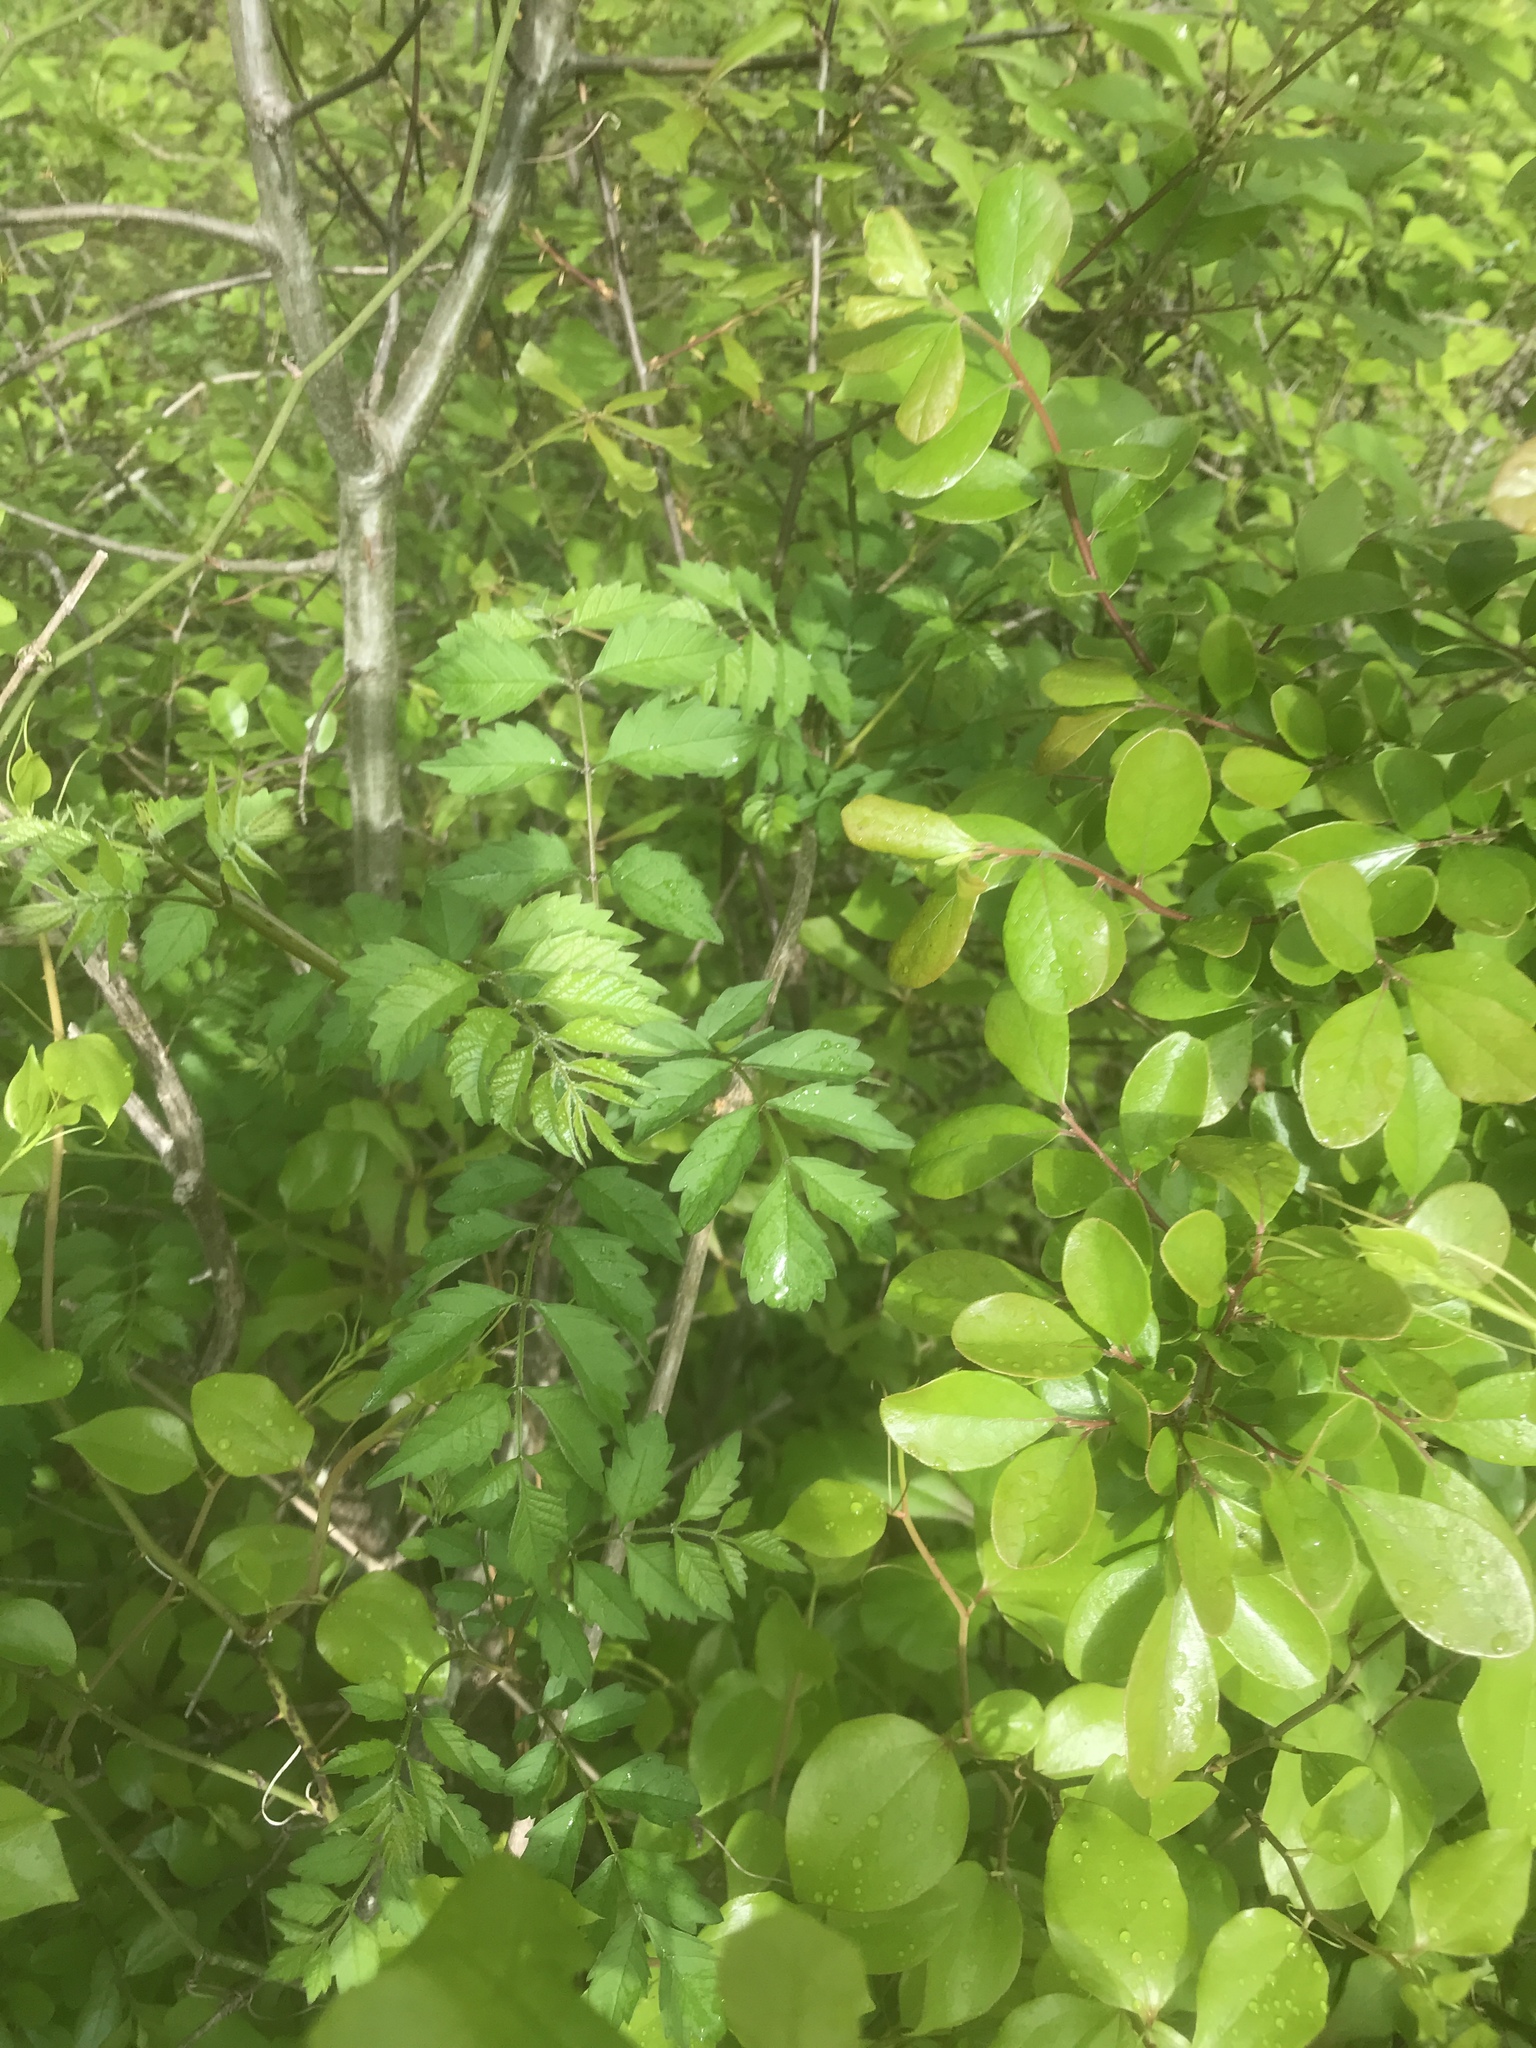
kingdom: Plantae
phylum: Tracheophyta
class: Magnoliopsida
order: Lamiales
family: Bignoniaceae
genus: Campsis
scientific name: Campsis radicans
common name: Trumpet-creeper
